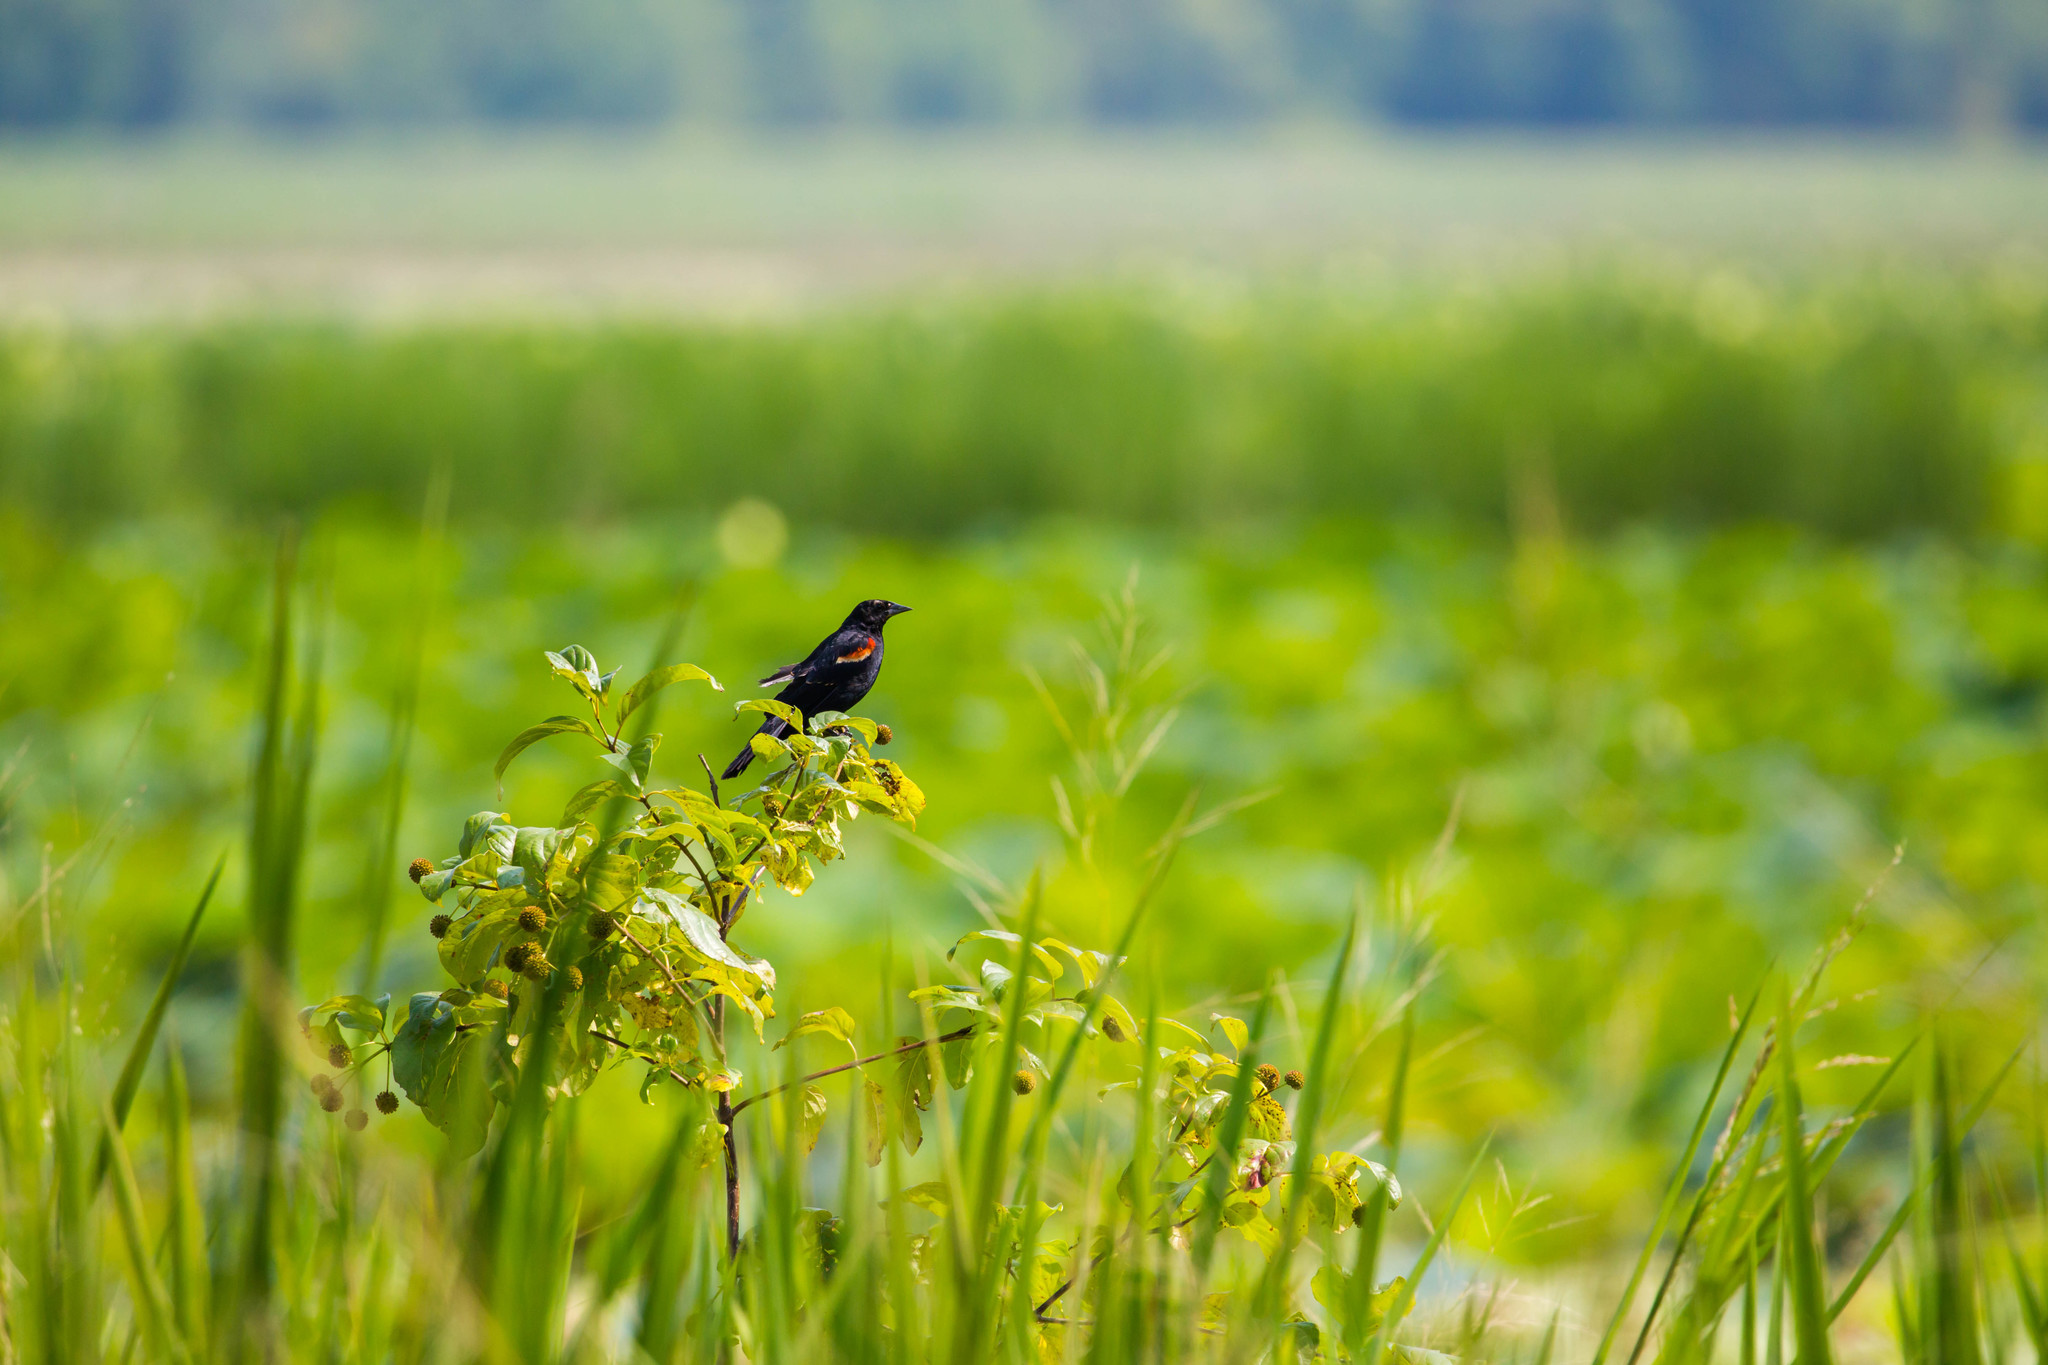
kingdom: Animalia
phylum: Chordata
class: Aves
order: Passeriformes
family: Icteridae
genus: Agelaius
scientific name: Agelaius phoeniceus
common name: Red-winged blackbird
